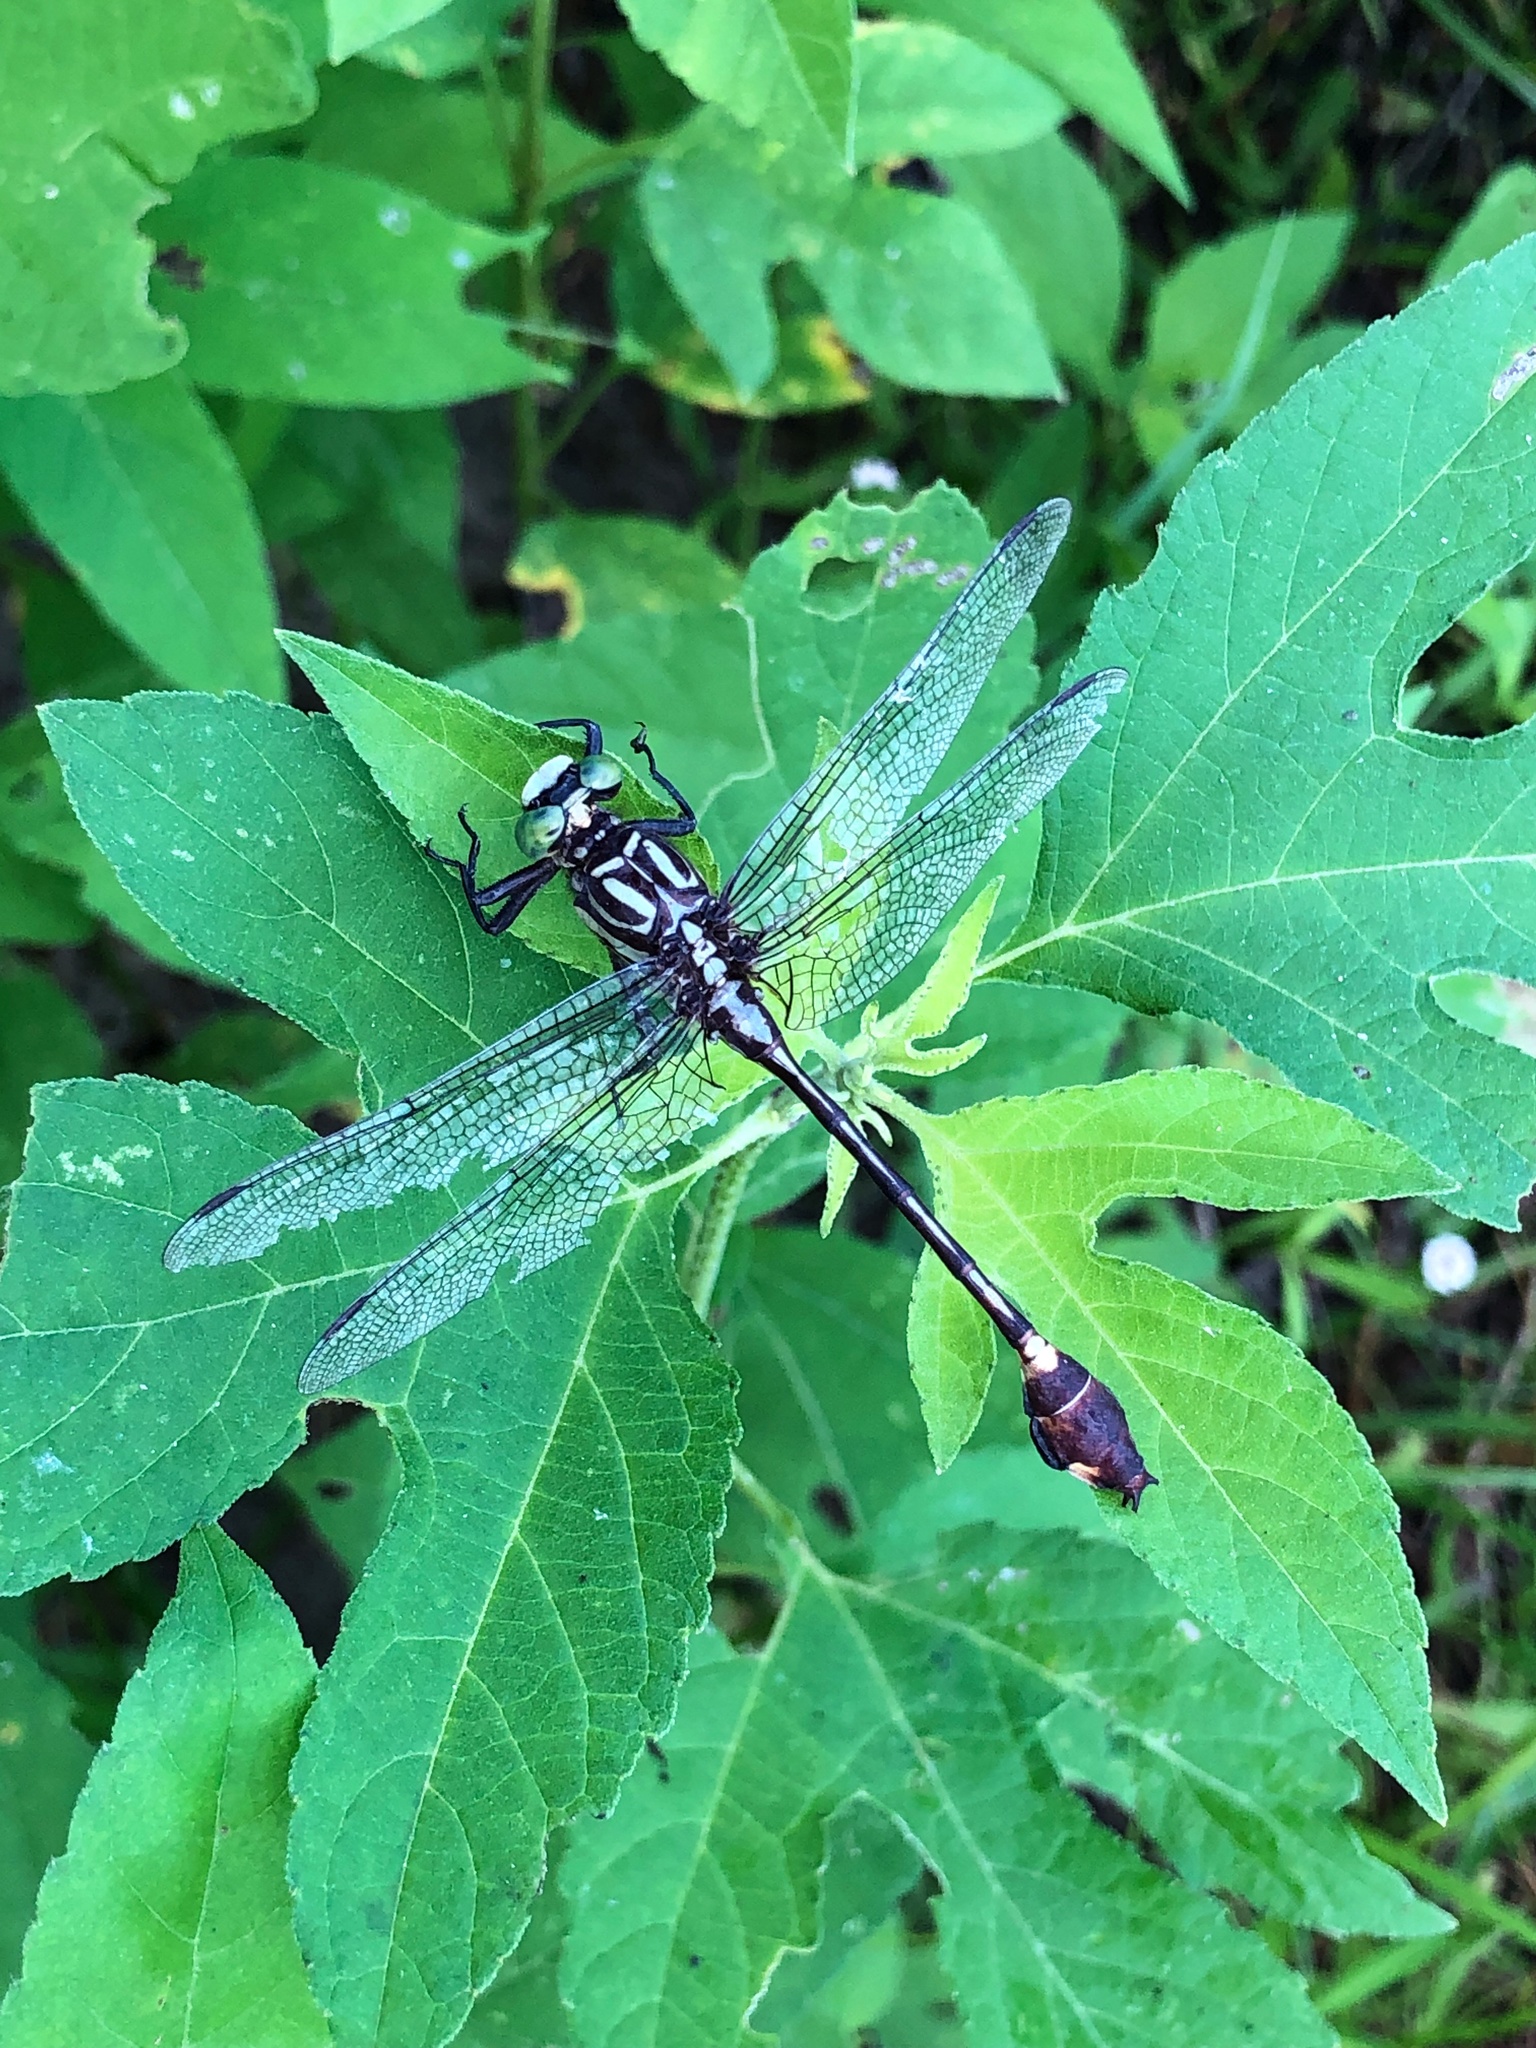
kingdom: Animalia
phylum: Arthropoda
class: Insecta
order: Odonata
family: Gomphidae
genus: Gomphurus
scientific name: Gomphurus vastus
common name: Cobra clubtail
